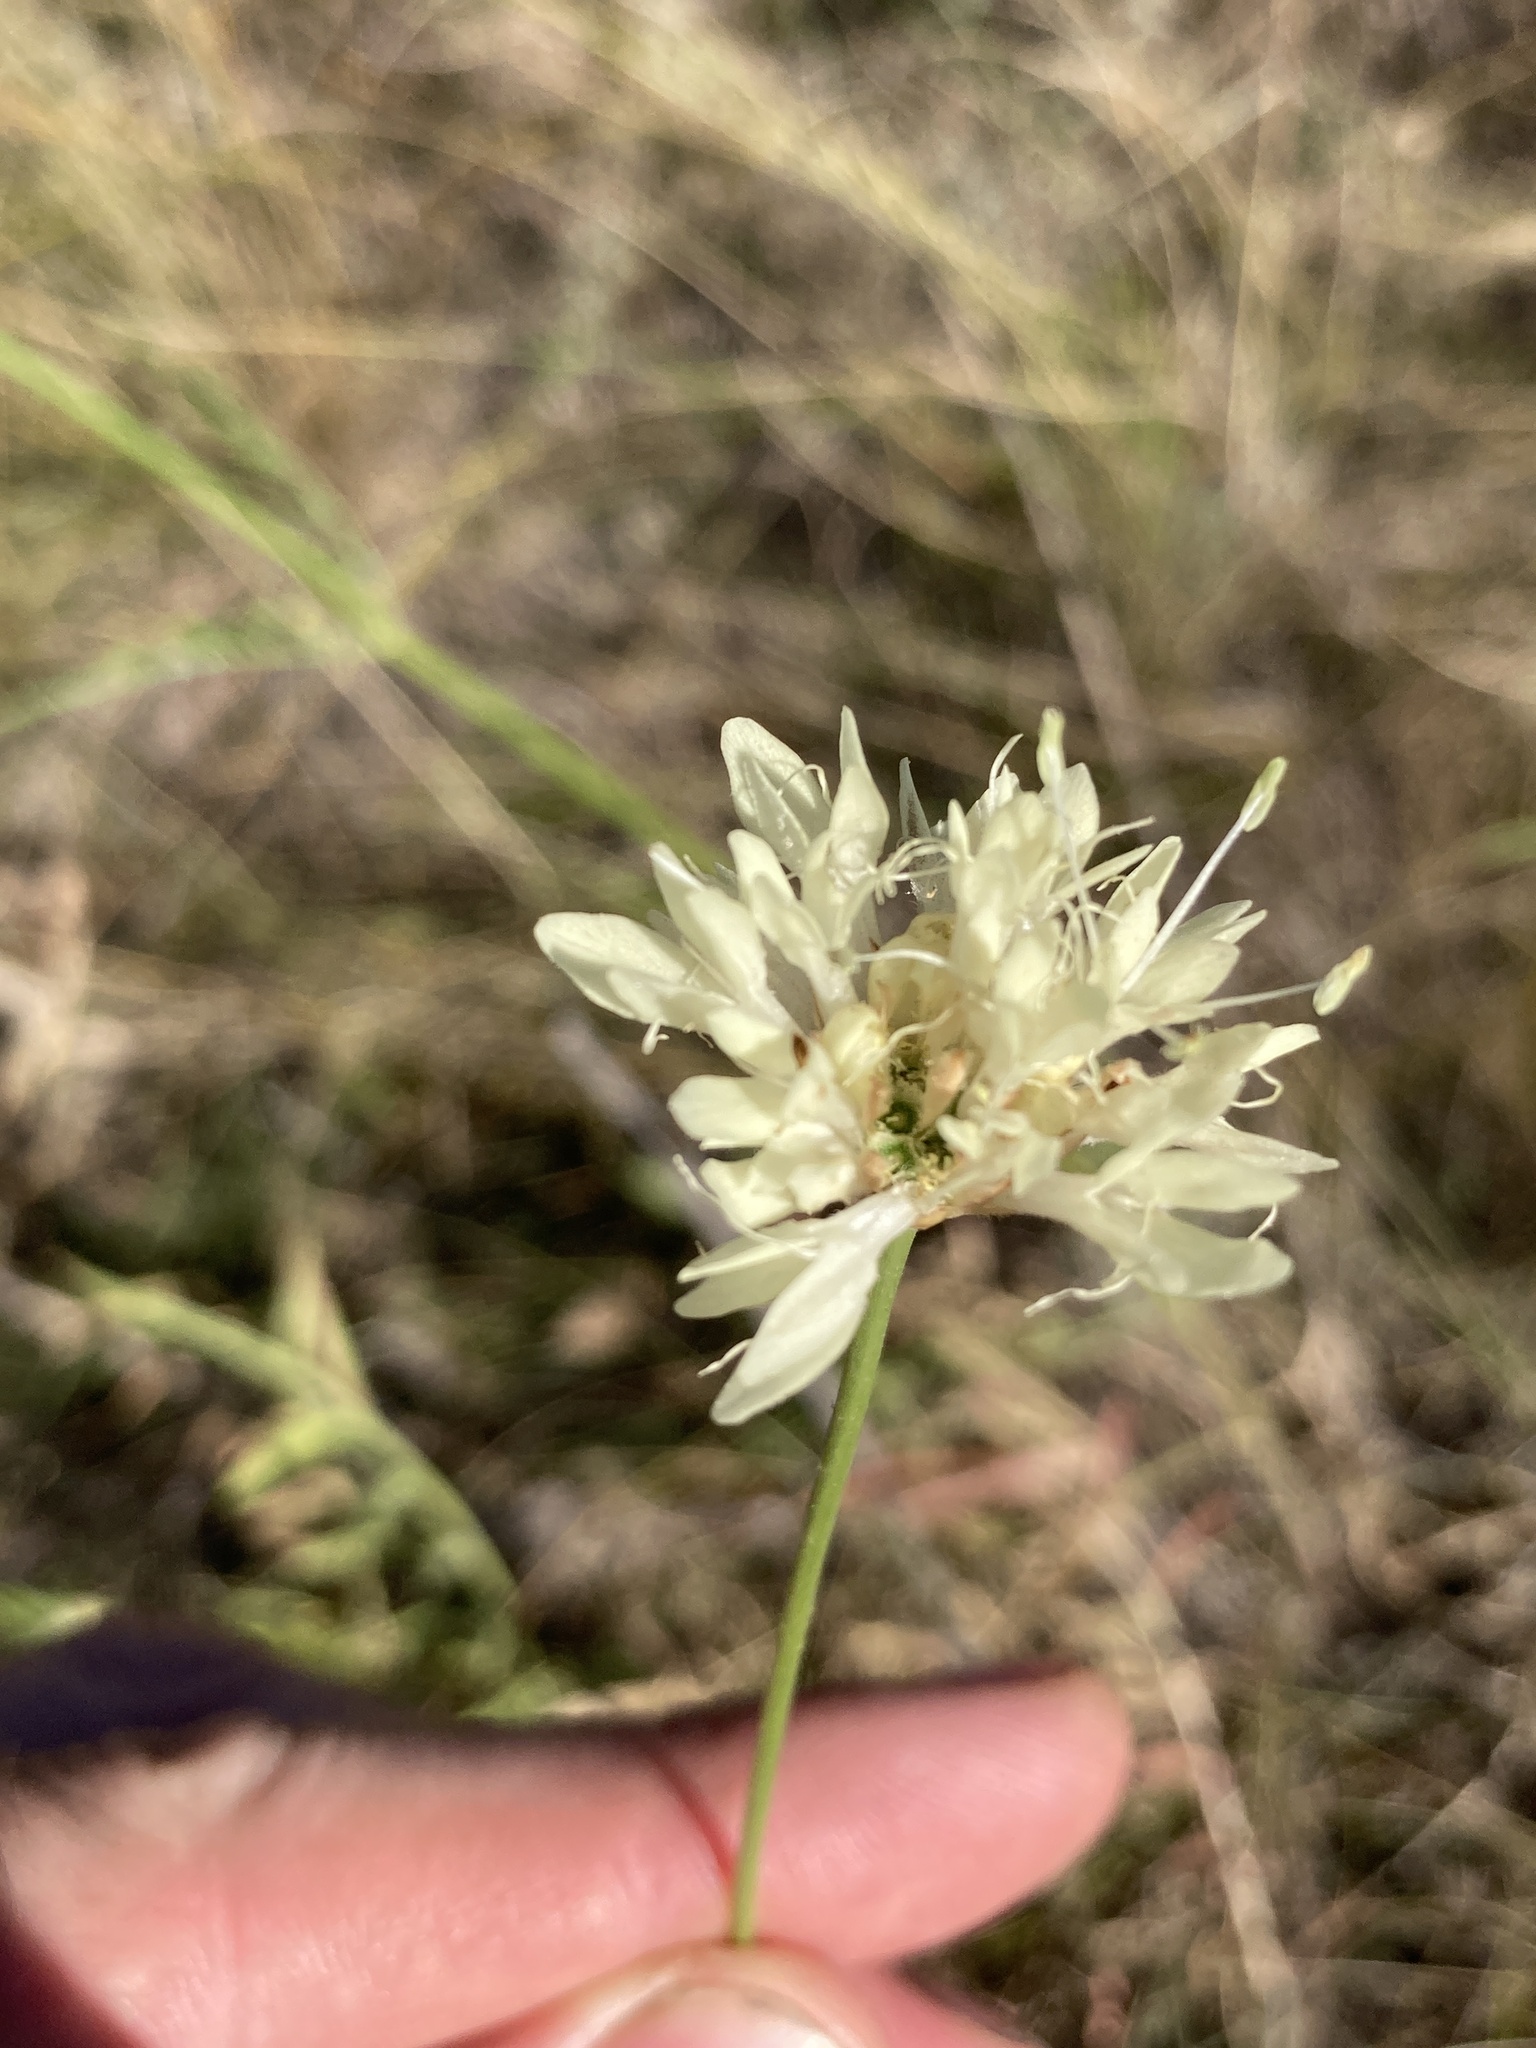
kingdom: Plantae
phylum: Tracheophyta
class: Magnoliopsida
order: Dipsacales
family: Caprifoliaceae
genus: Cephalaria
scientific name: Cephalaria uralensis
